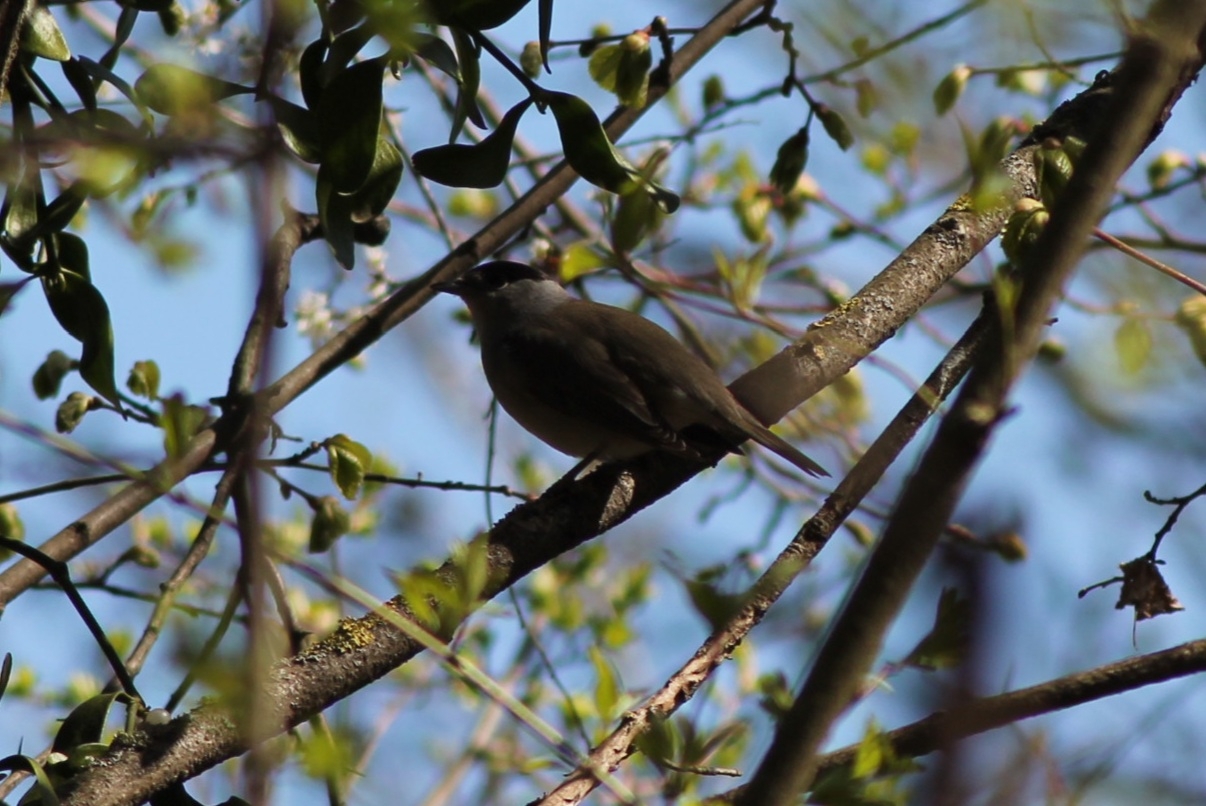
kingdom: Animalia
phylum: Chordata
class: Aves
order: Passeriformes
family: Sylviidae
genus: Sylvia
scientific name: Sylvia atricapilla
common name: Eurasian blackcap
